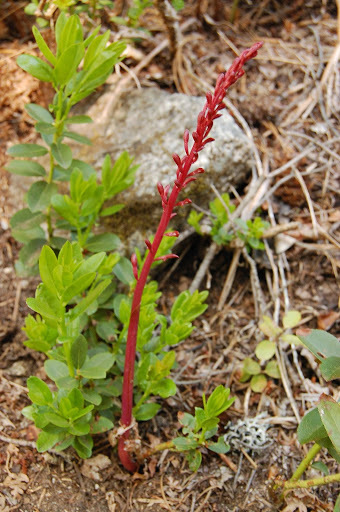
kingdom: Plantae
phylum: Tracheophyta
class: Liliopsida
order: Asparagales
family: Orchidaceae
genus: Corallorhiza
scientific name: Corallorhiza mertensiana
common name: Pacific coralroot
